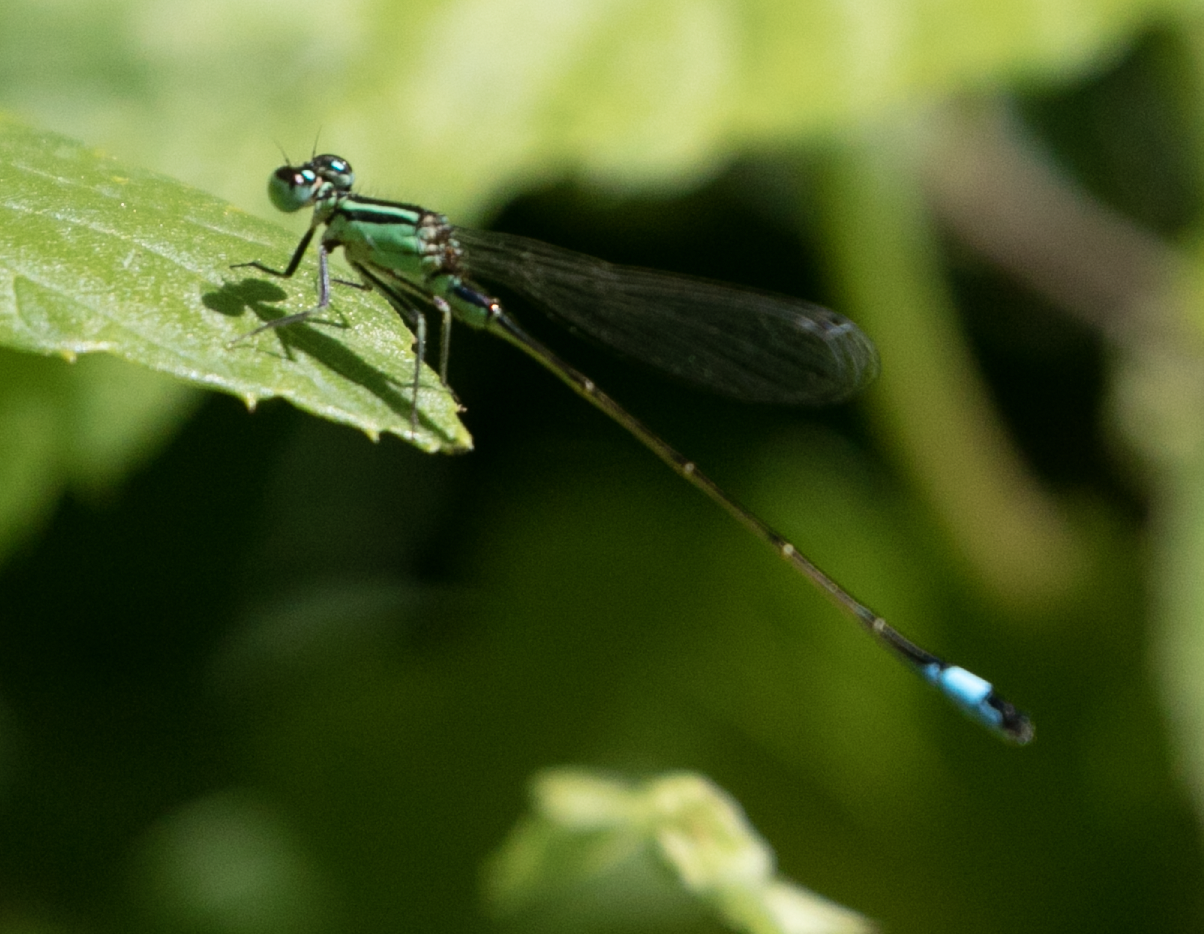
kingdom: Animalia
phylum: Arthropoda
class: Insecta
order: Odonata
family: Coenagrionidae
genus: Ischnura
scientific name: Ischnura elegans
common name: Blue-tailed damselfly
